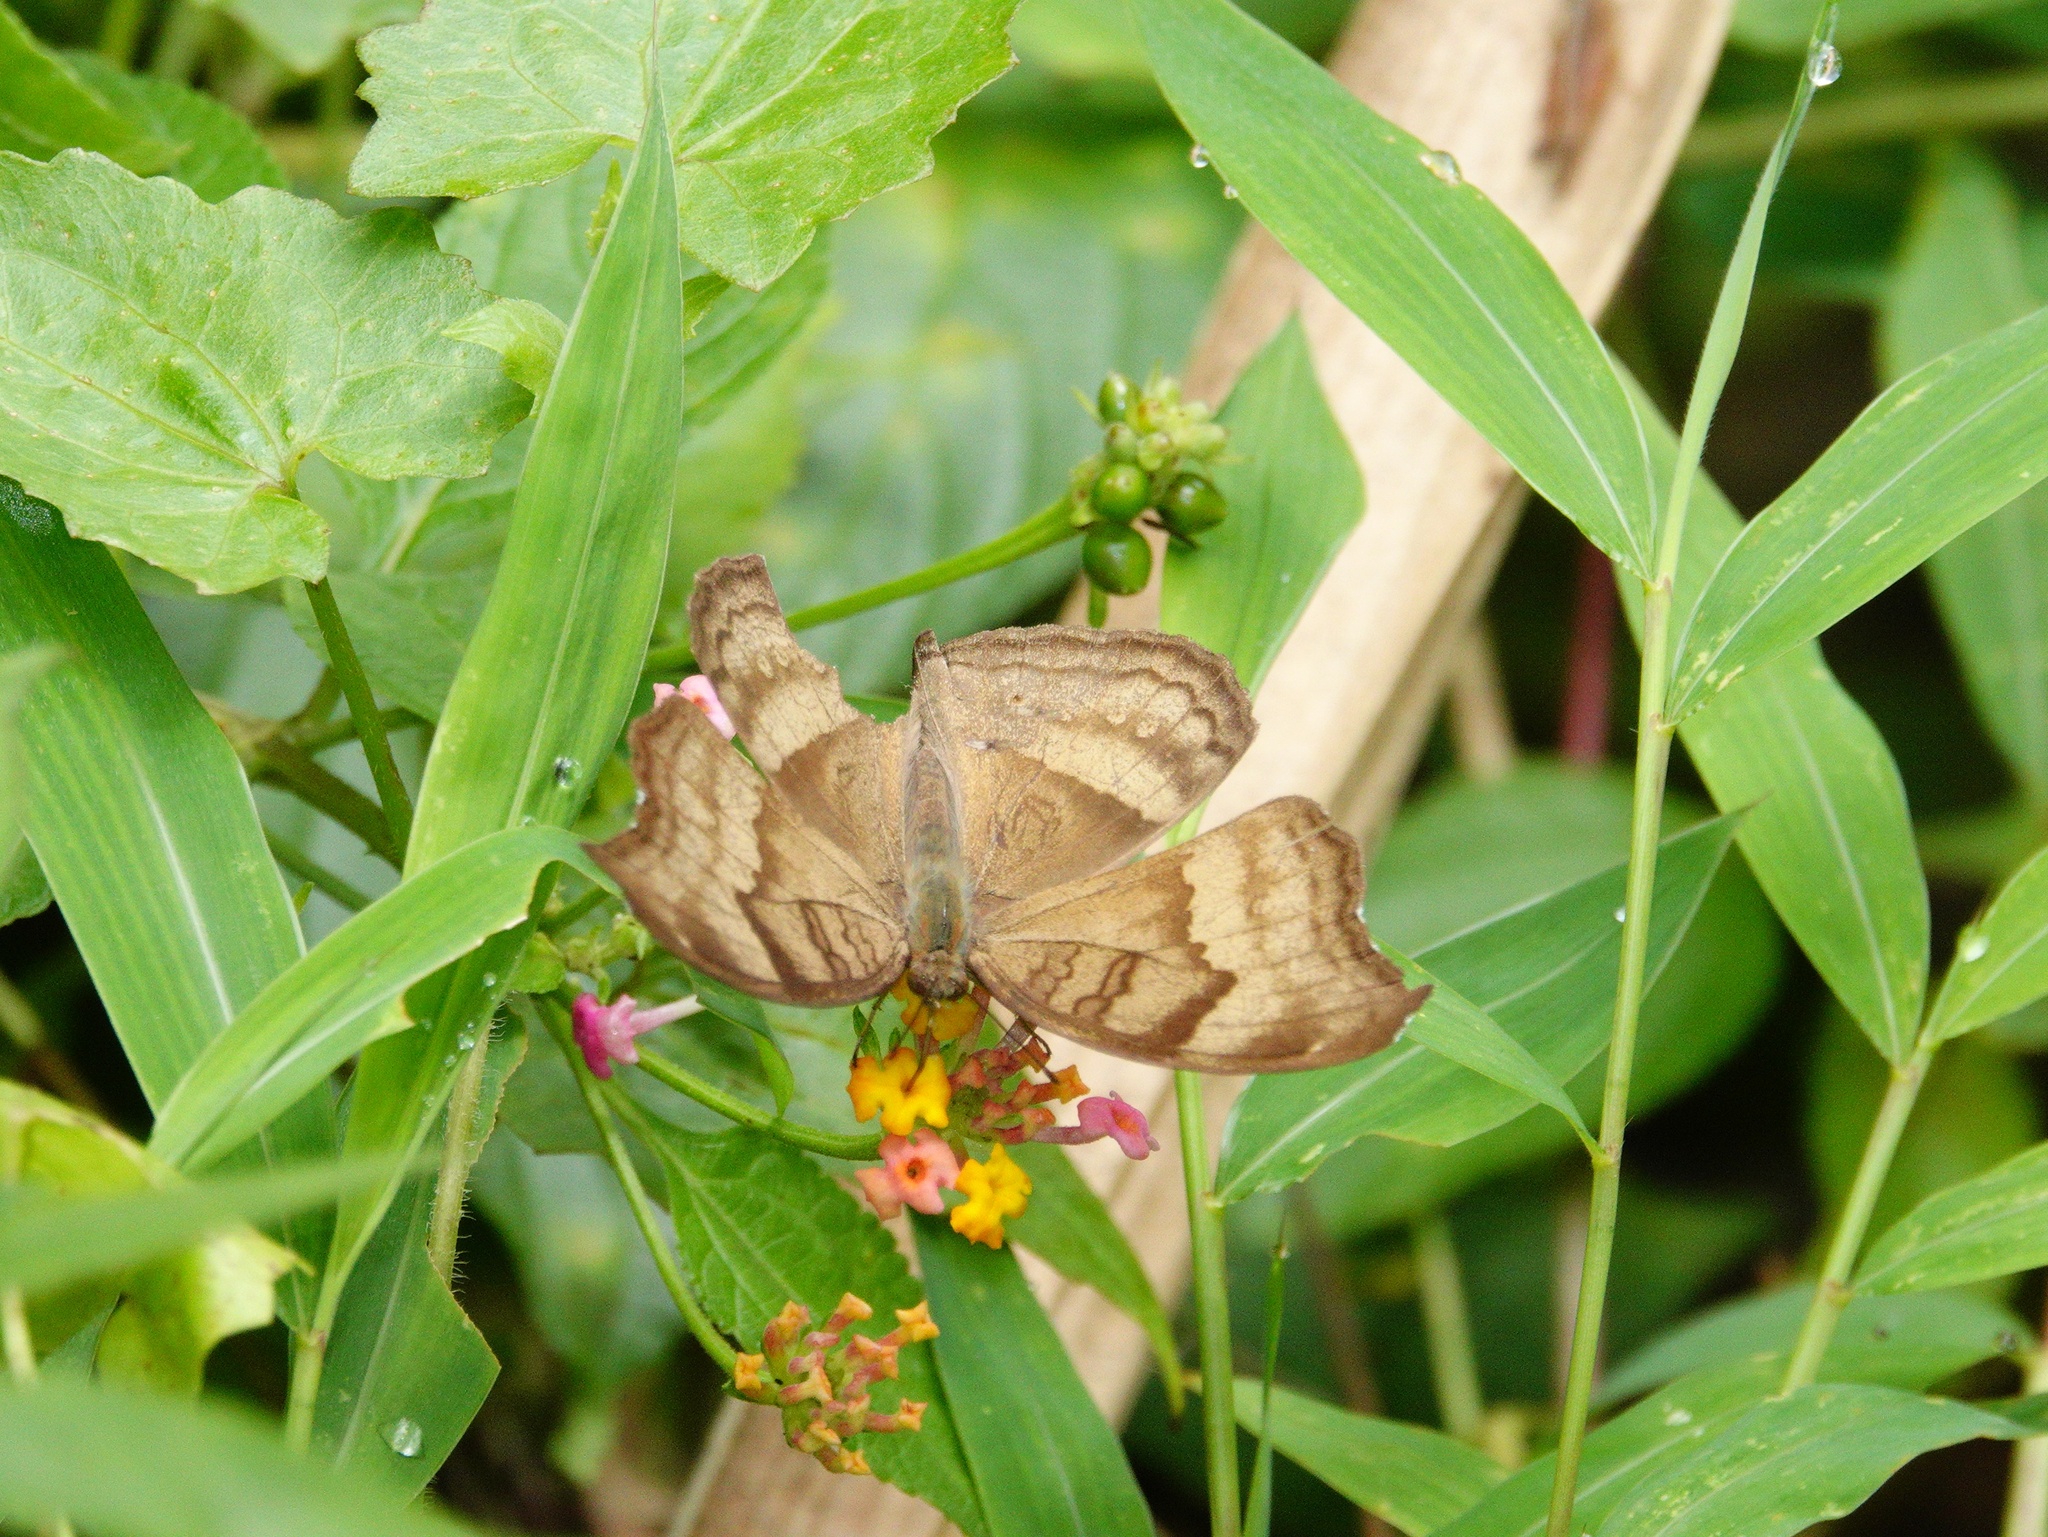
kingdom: Animalia
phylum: Arthropoda
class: Insecta
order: Lepidoptera
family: Nymphalidae
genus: Junonia
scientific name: Junonia iphita
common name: Chocolate pansy
